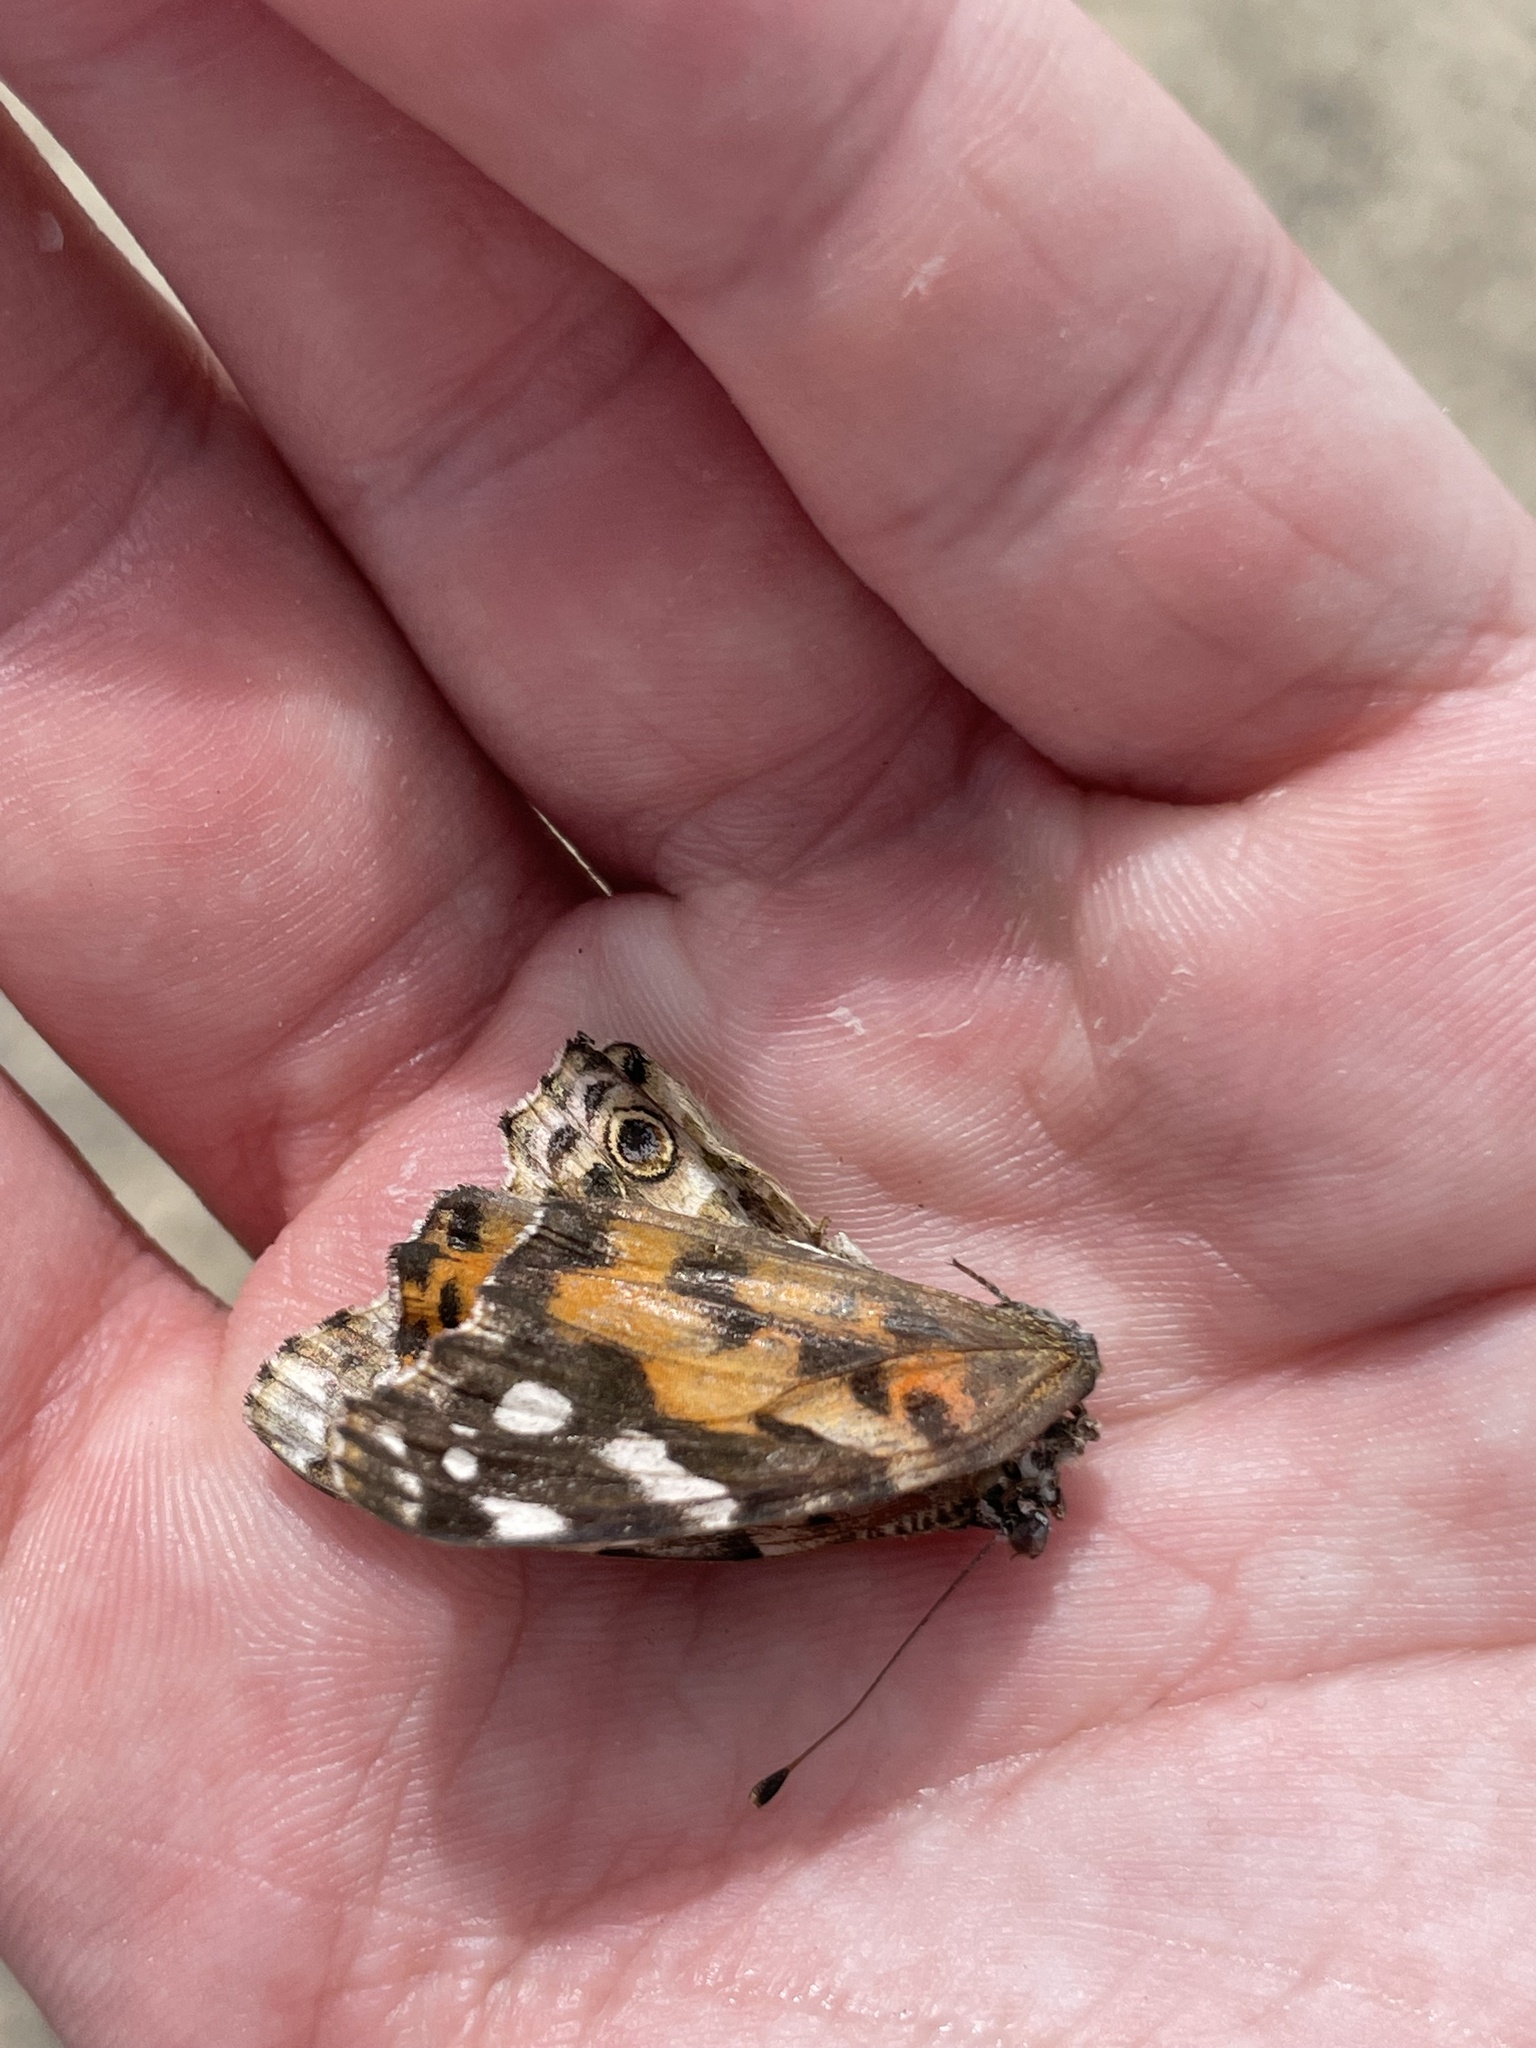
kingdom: Animalia
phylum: Arthropoda
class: Insecta
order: Lepidoptera
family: Nymphalidae
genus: Vanessa
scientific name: Vanessa cardui
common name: Painted lady
